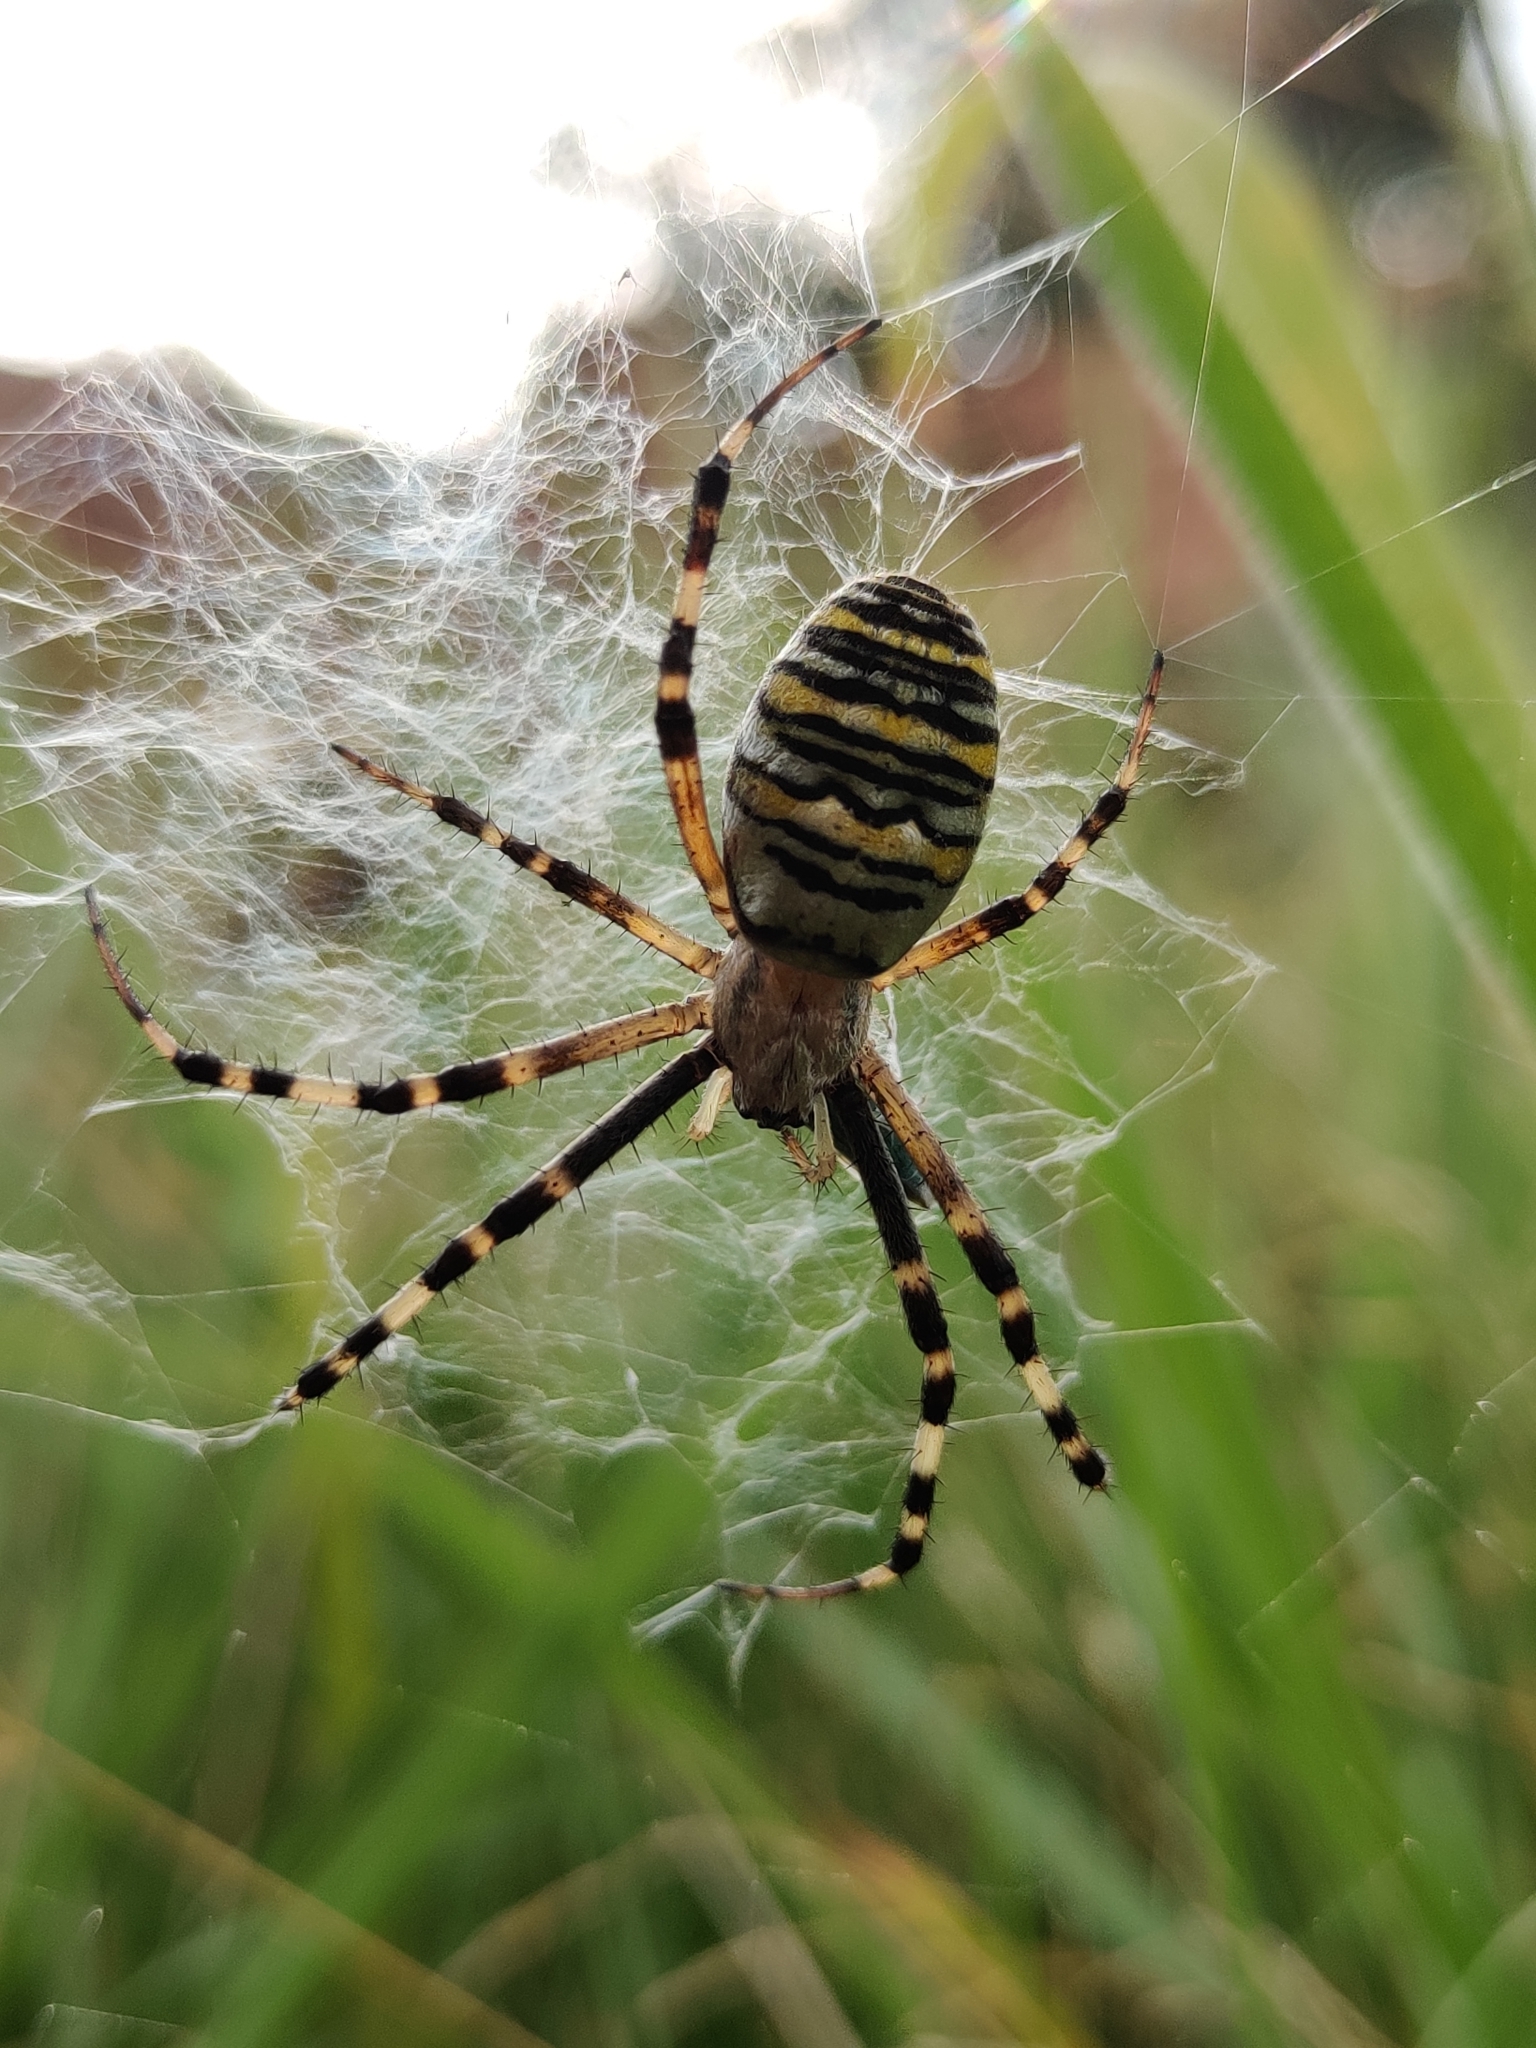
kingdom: Animalia
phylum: Arthropoda
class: Arachnida
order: Araneae
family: Araneidae
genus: Argiope
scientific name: Argiope bruennichi
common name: Wasp spider
